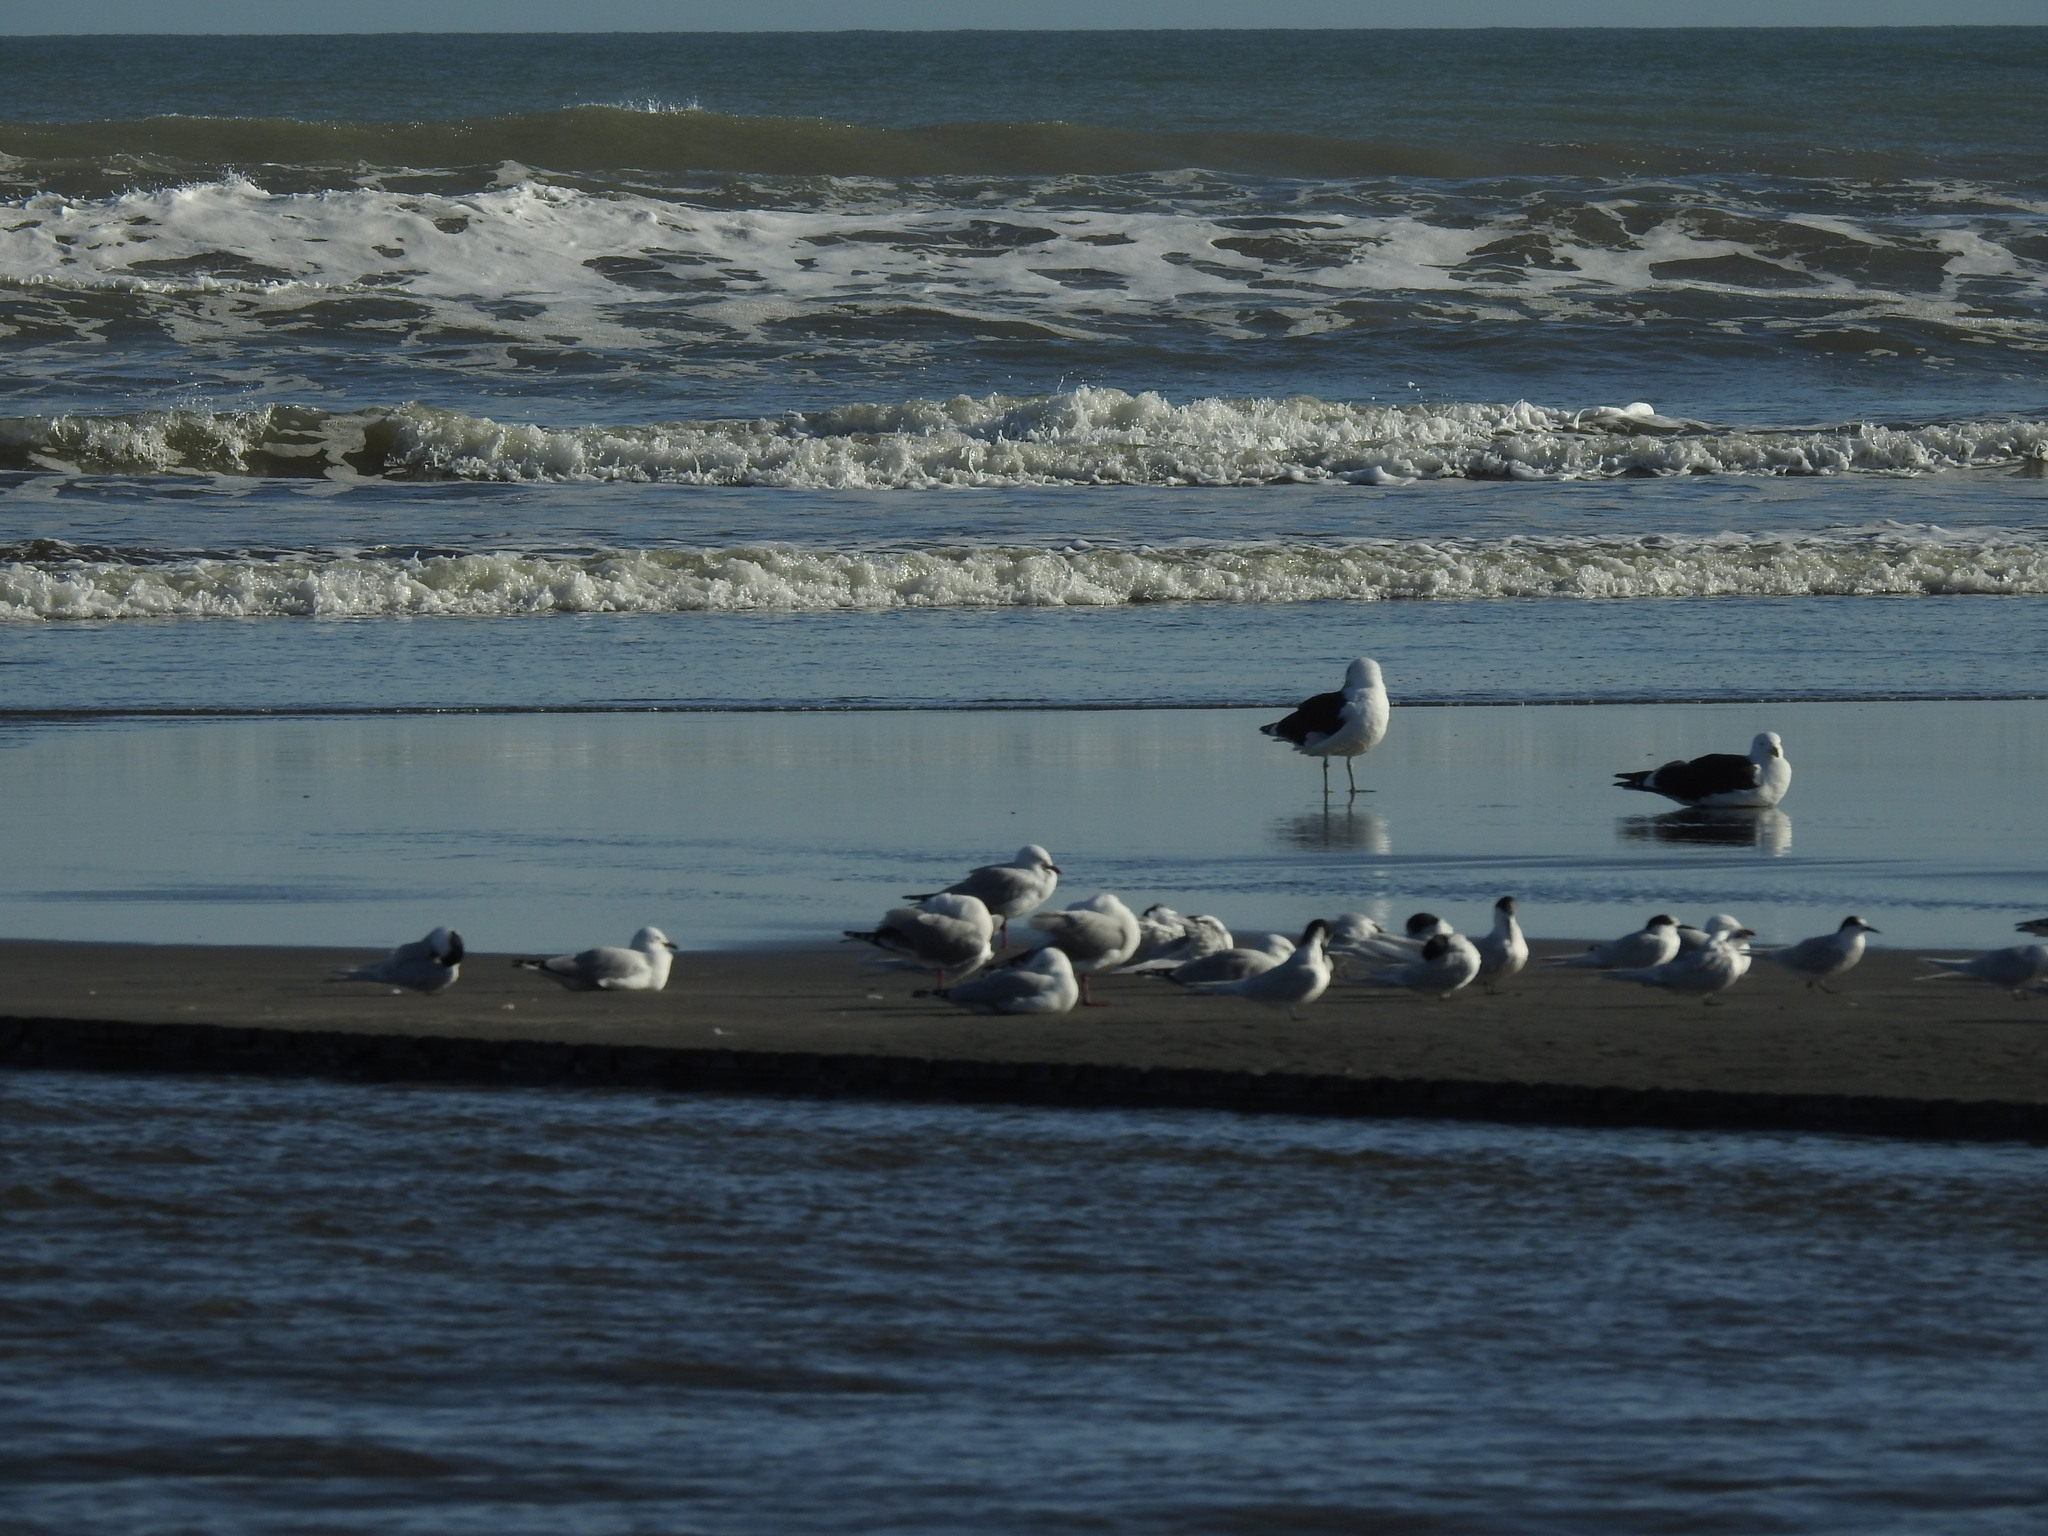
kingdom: Animalia
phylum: Chordata
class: Aves
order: Charadriiformes
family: Laridae
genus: Sterna
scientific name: Sterna striata
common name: White-fronted tern
